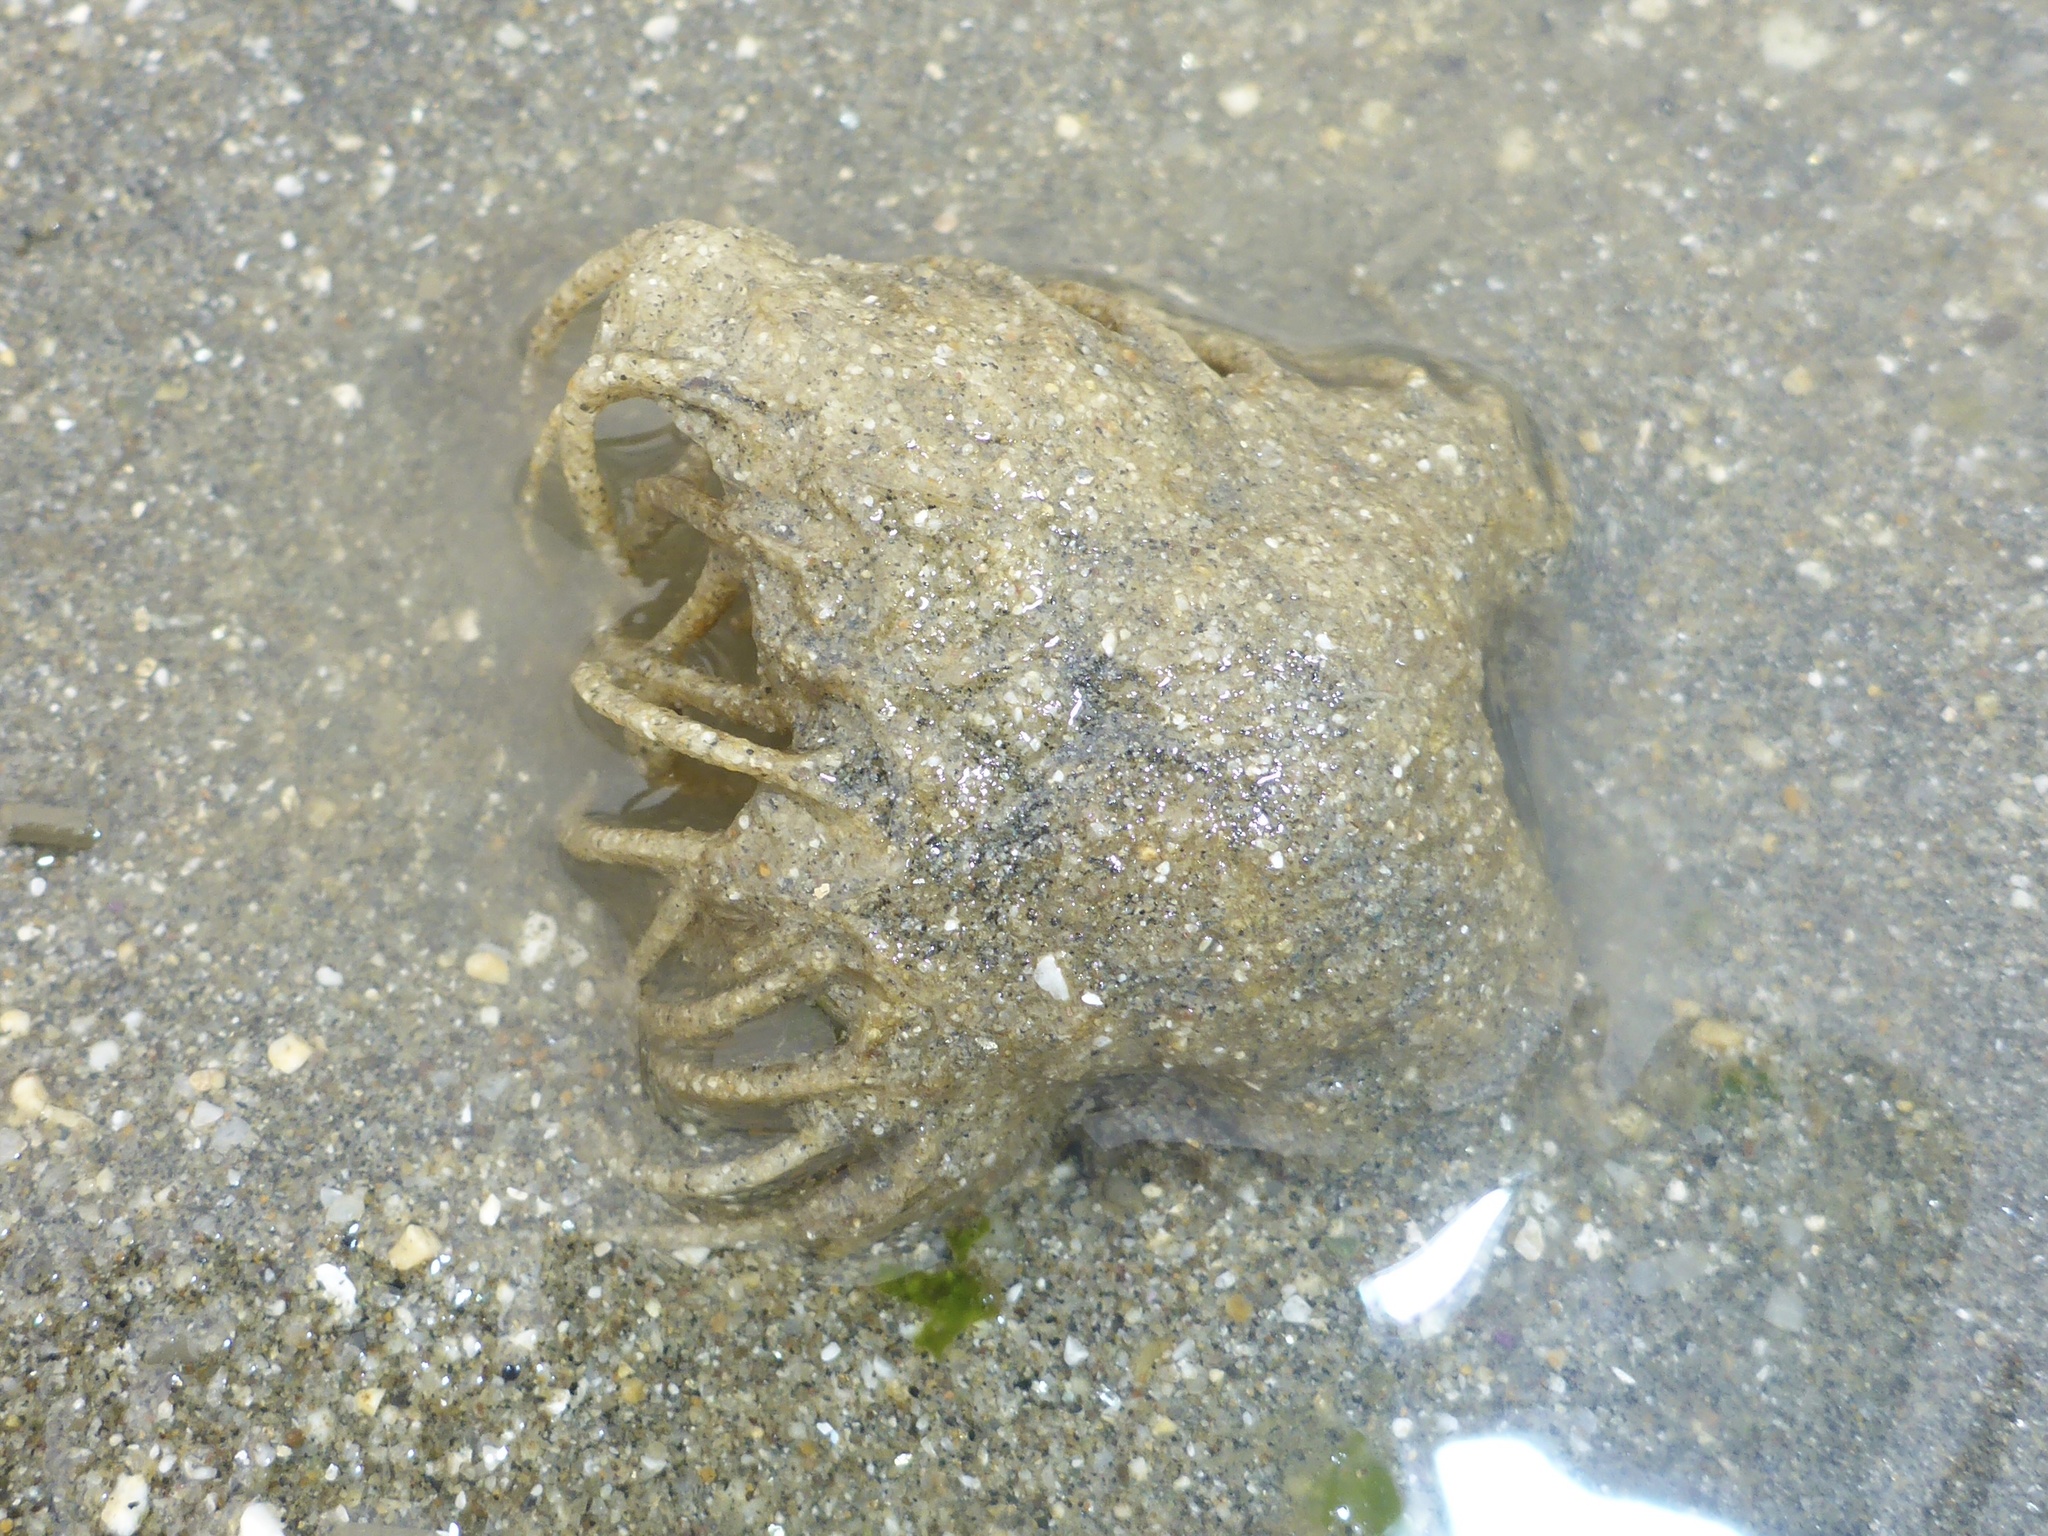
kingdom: Animalia
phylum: Annelida
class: Polychaeta
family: Terebellidae
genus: Pista
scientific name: Pista pacifica
